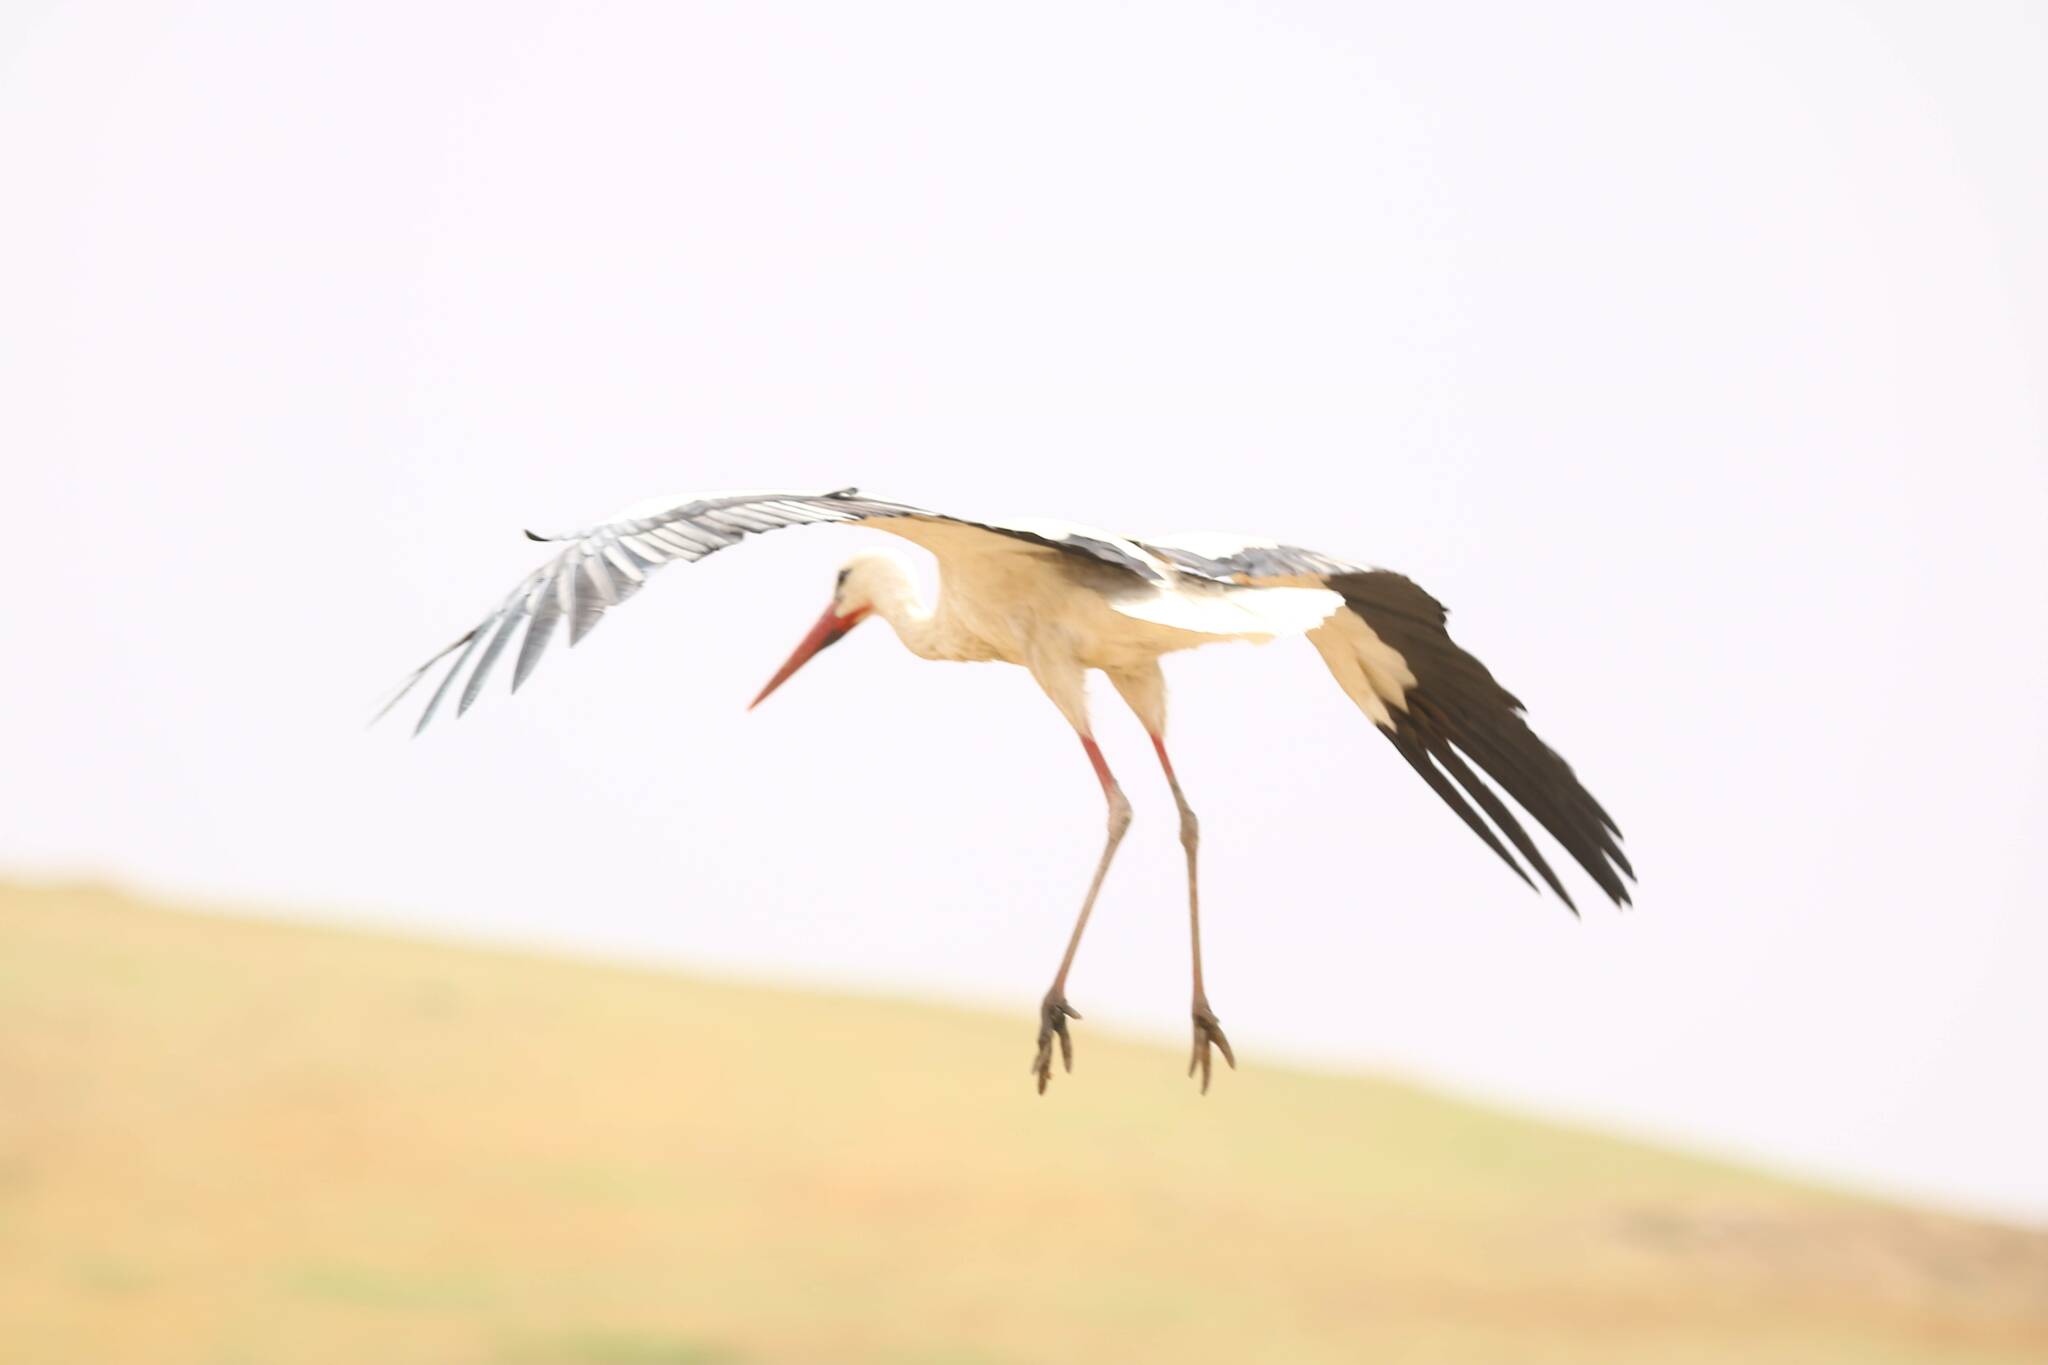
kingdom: Animalia
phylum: Chordata
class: Aves
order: Ciconiiformes
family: Ciconiidae
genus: Ciconia
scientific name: Ciconia ciconia
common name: White stork
